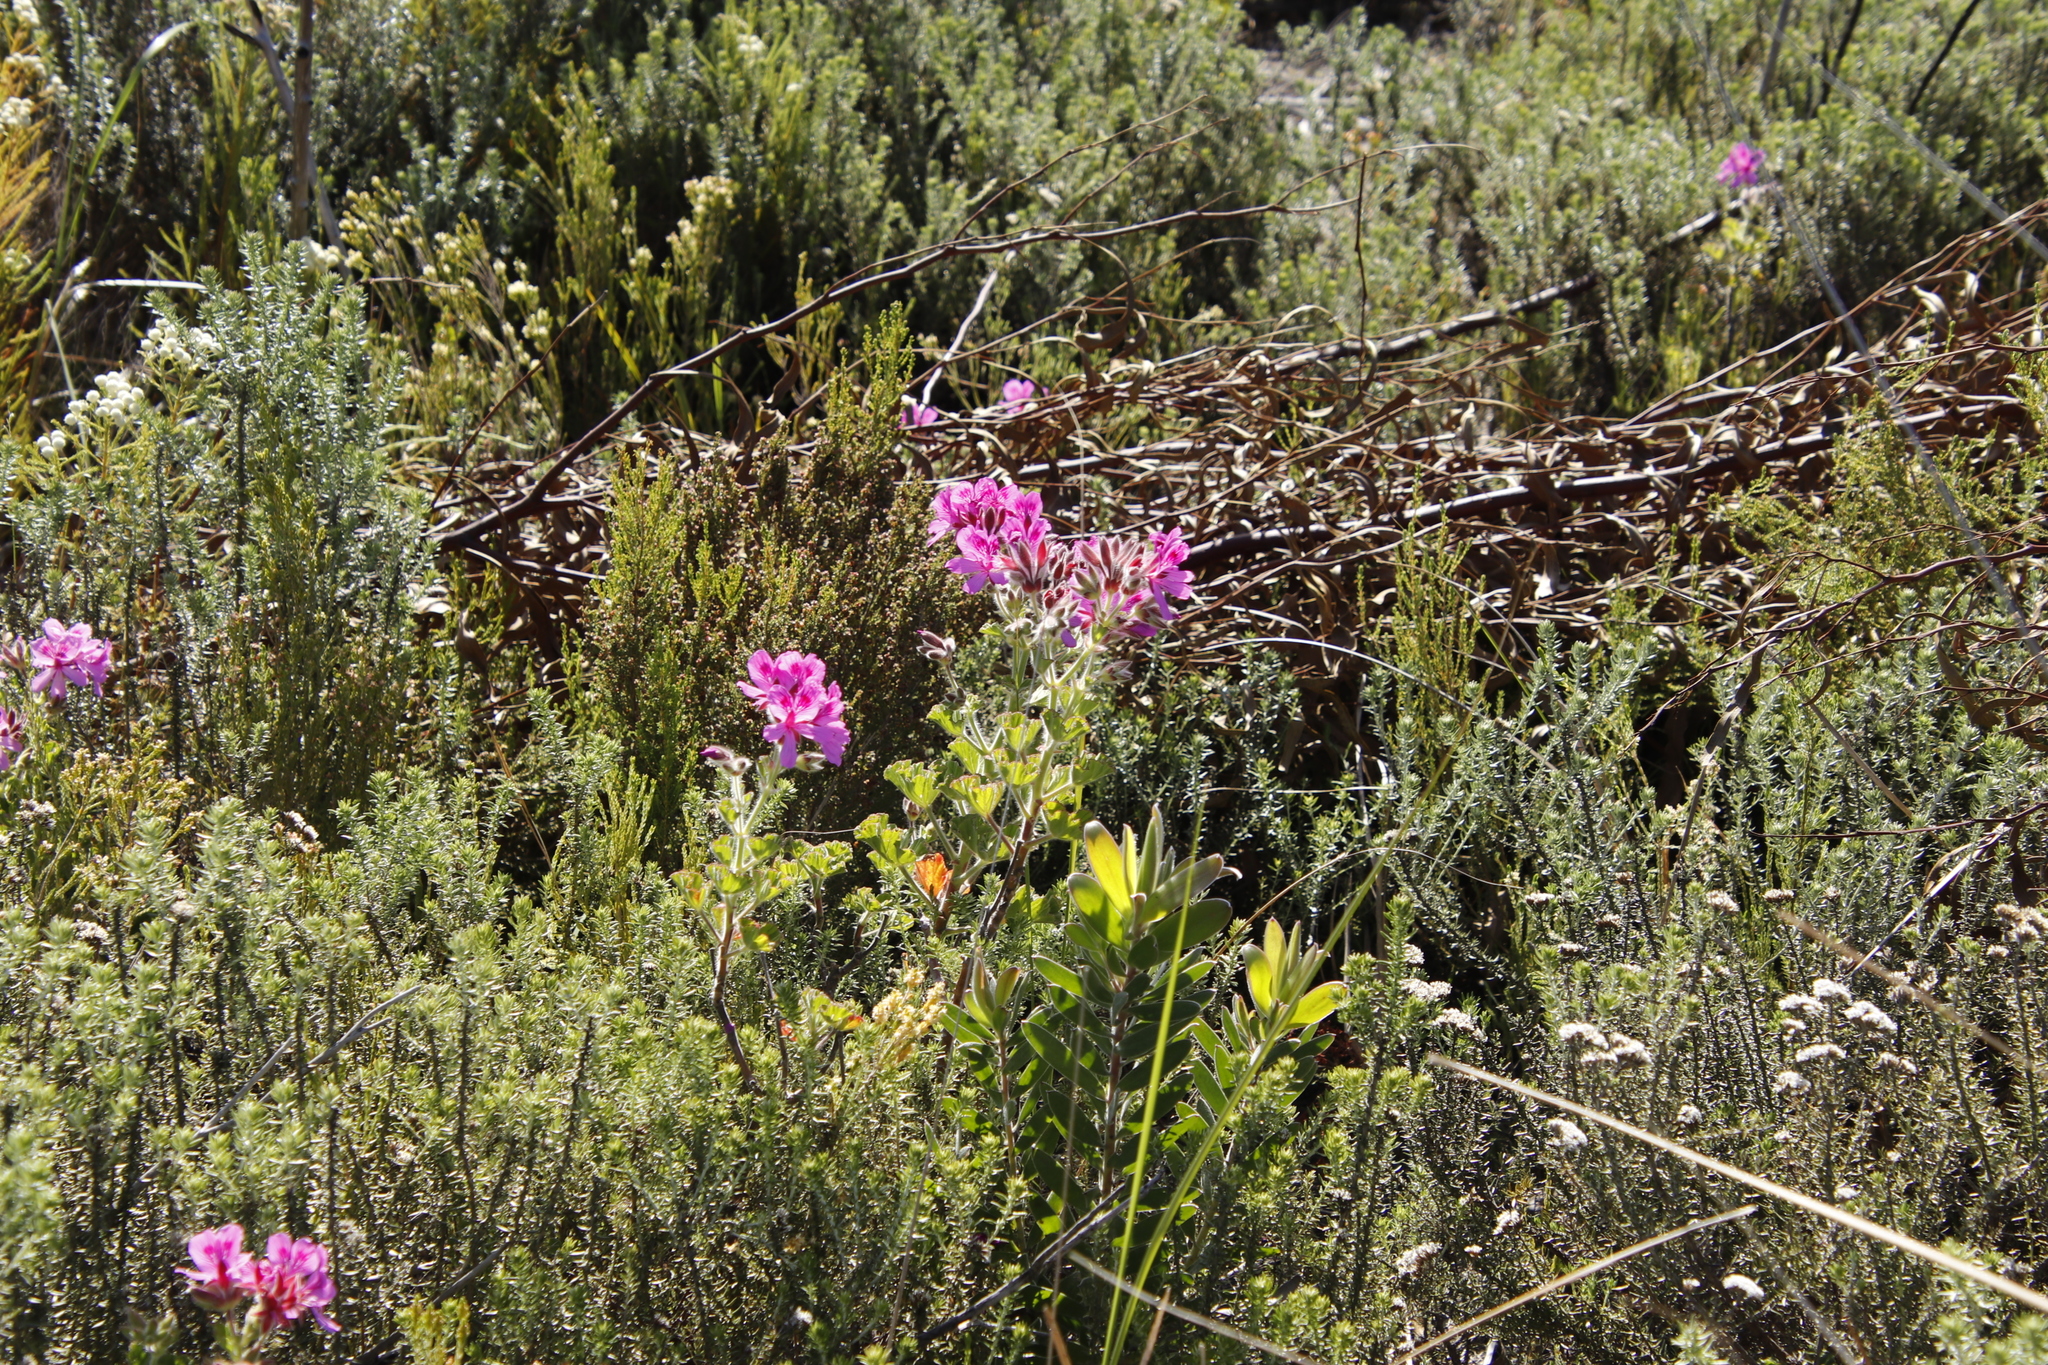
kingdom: Plantae
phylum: Tracheophyta
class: Magnoliopsida
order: Geraniales
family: Geraniaceae
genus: Pelargonium
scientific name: Pelargonium cucullatum
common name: Tree pelargonium
